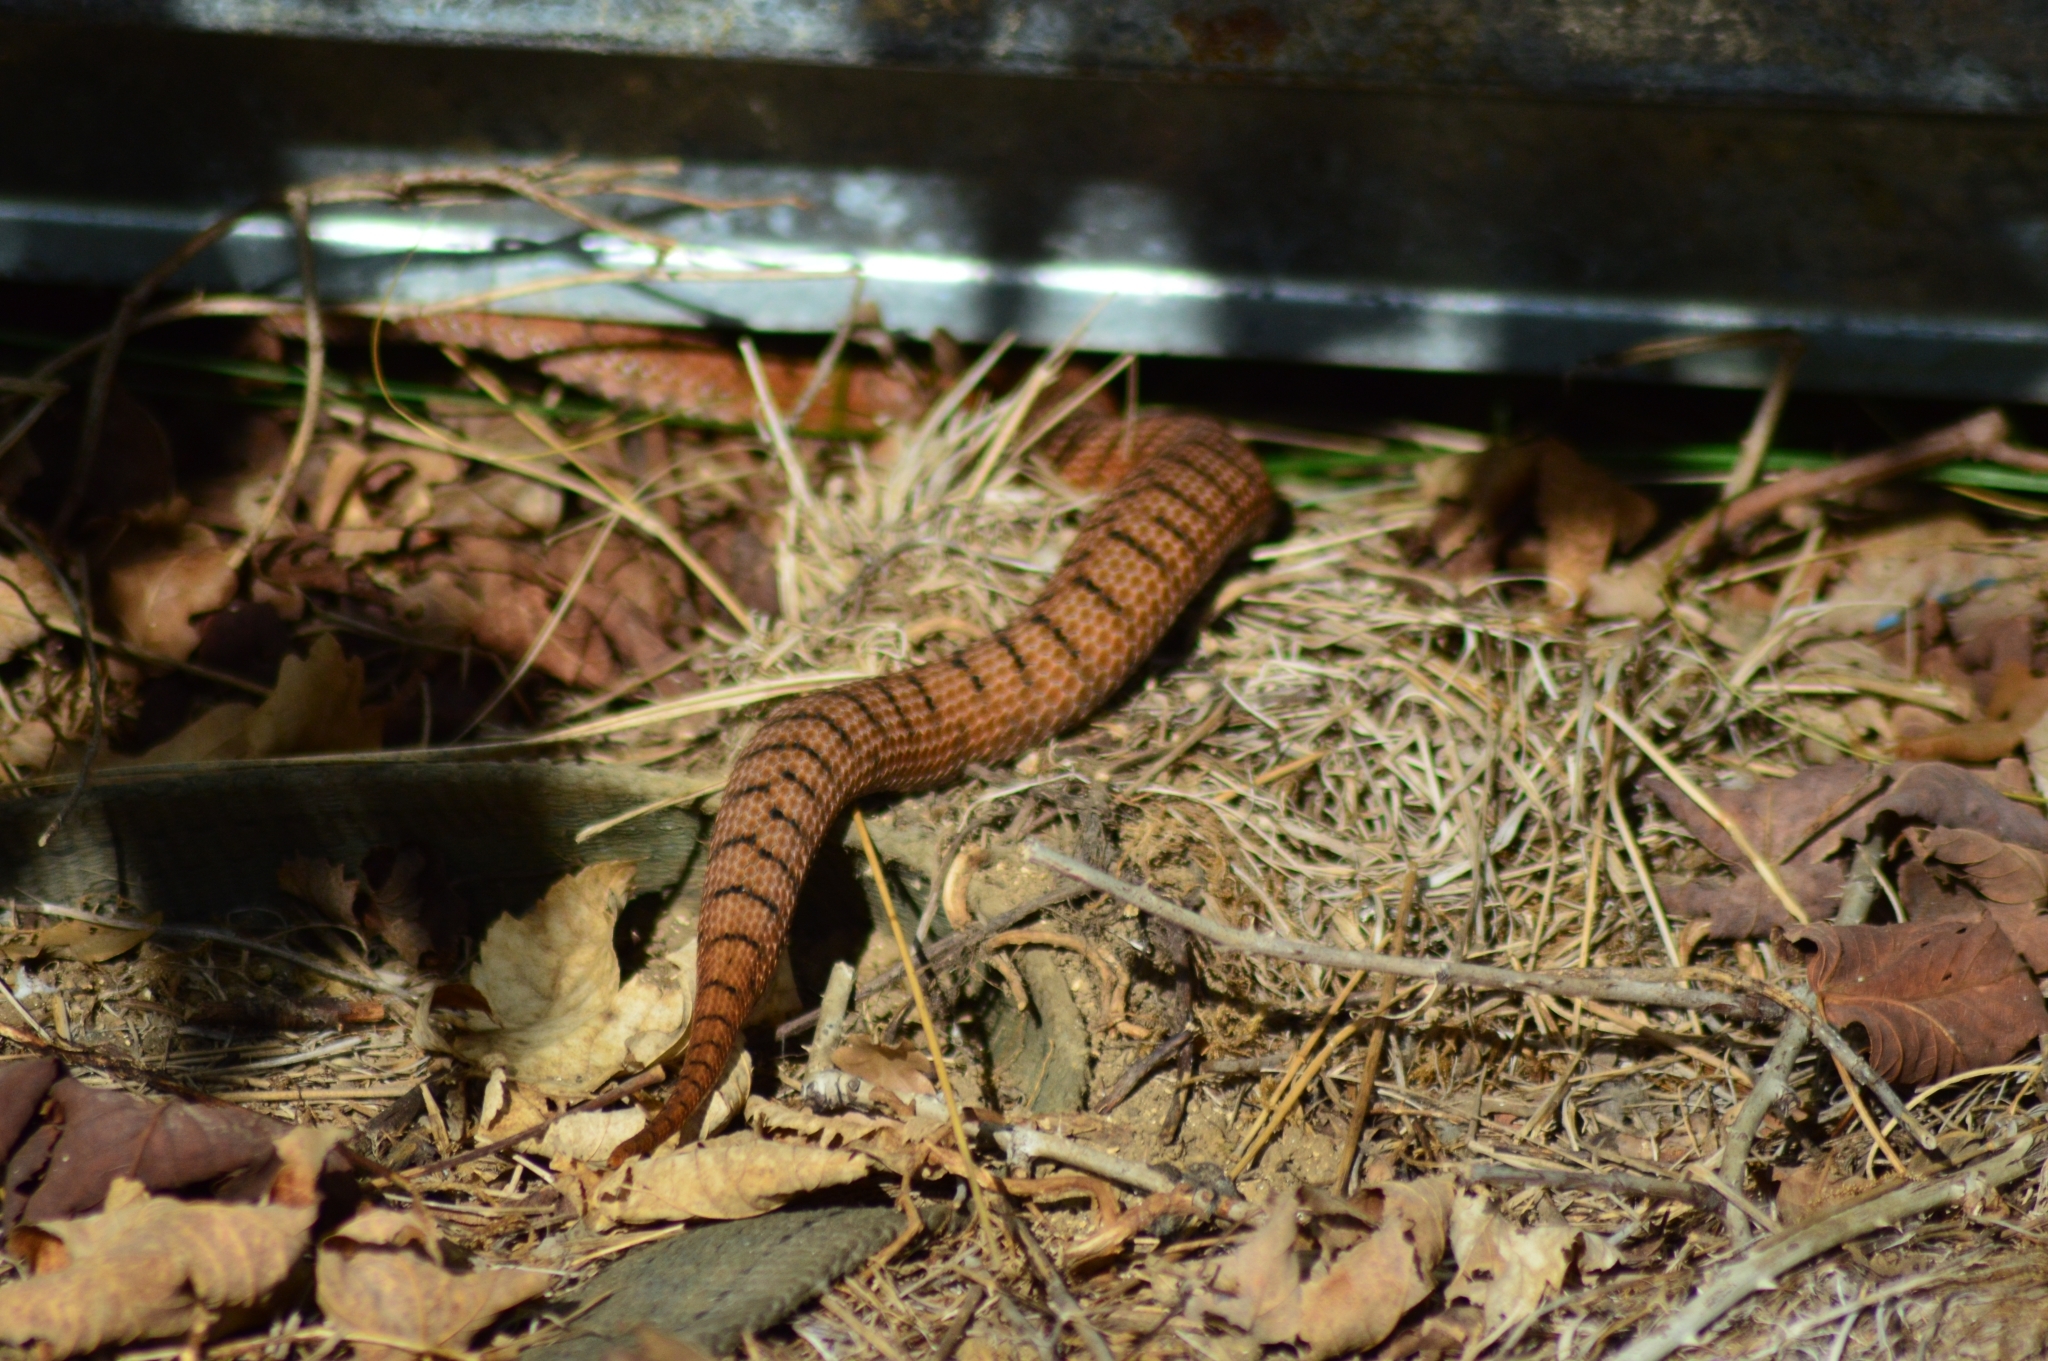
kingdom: Animalia
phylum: Chordata
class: Squamata
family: Viperidae
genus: Vipera
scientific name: Vipera aspis
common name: Asp viper
